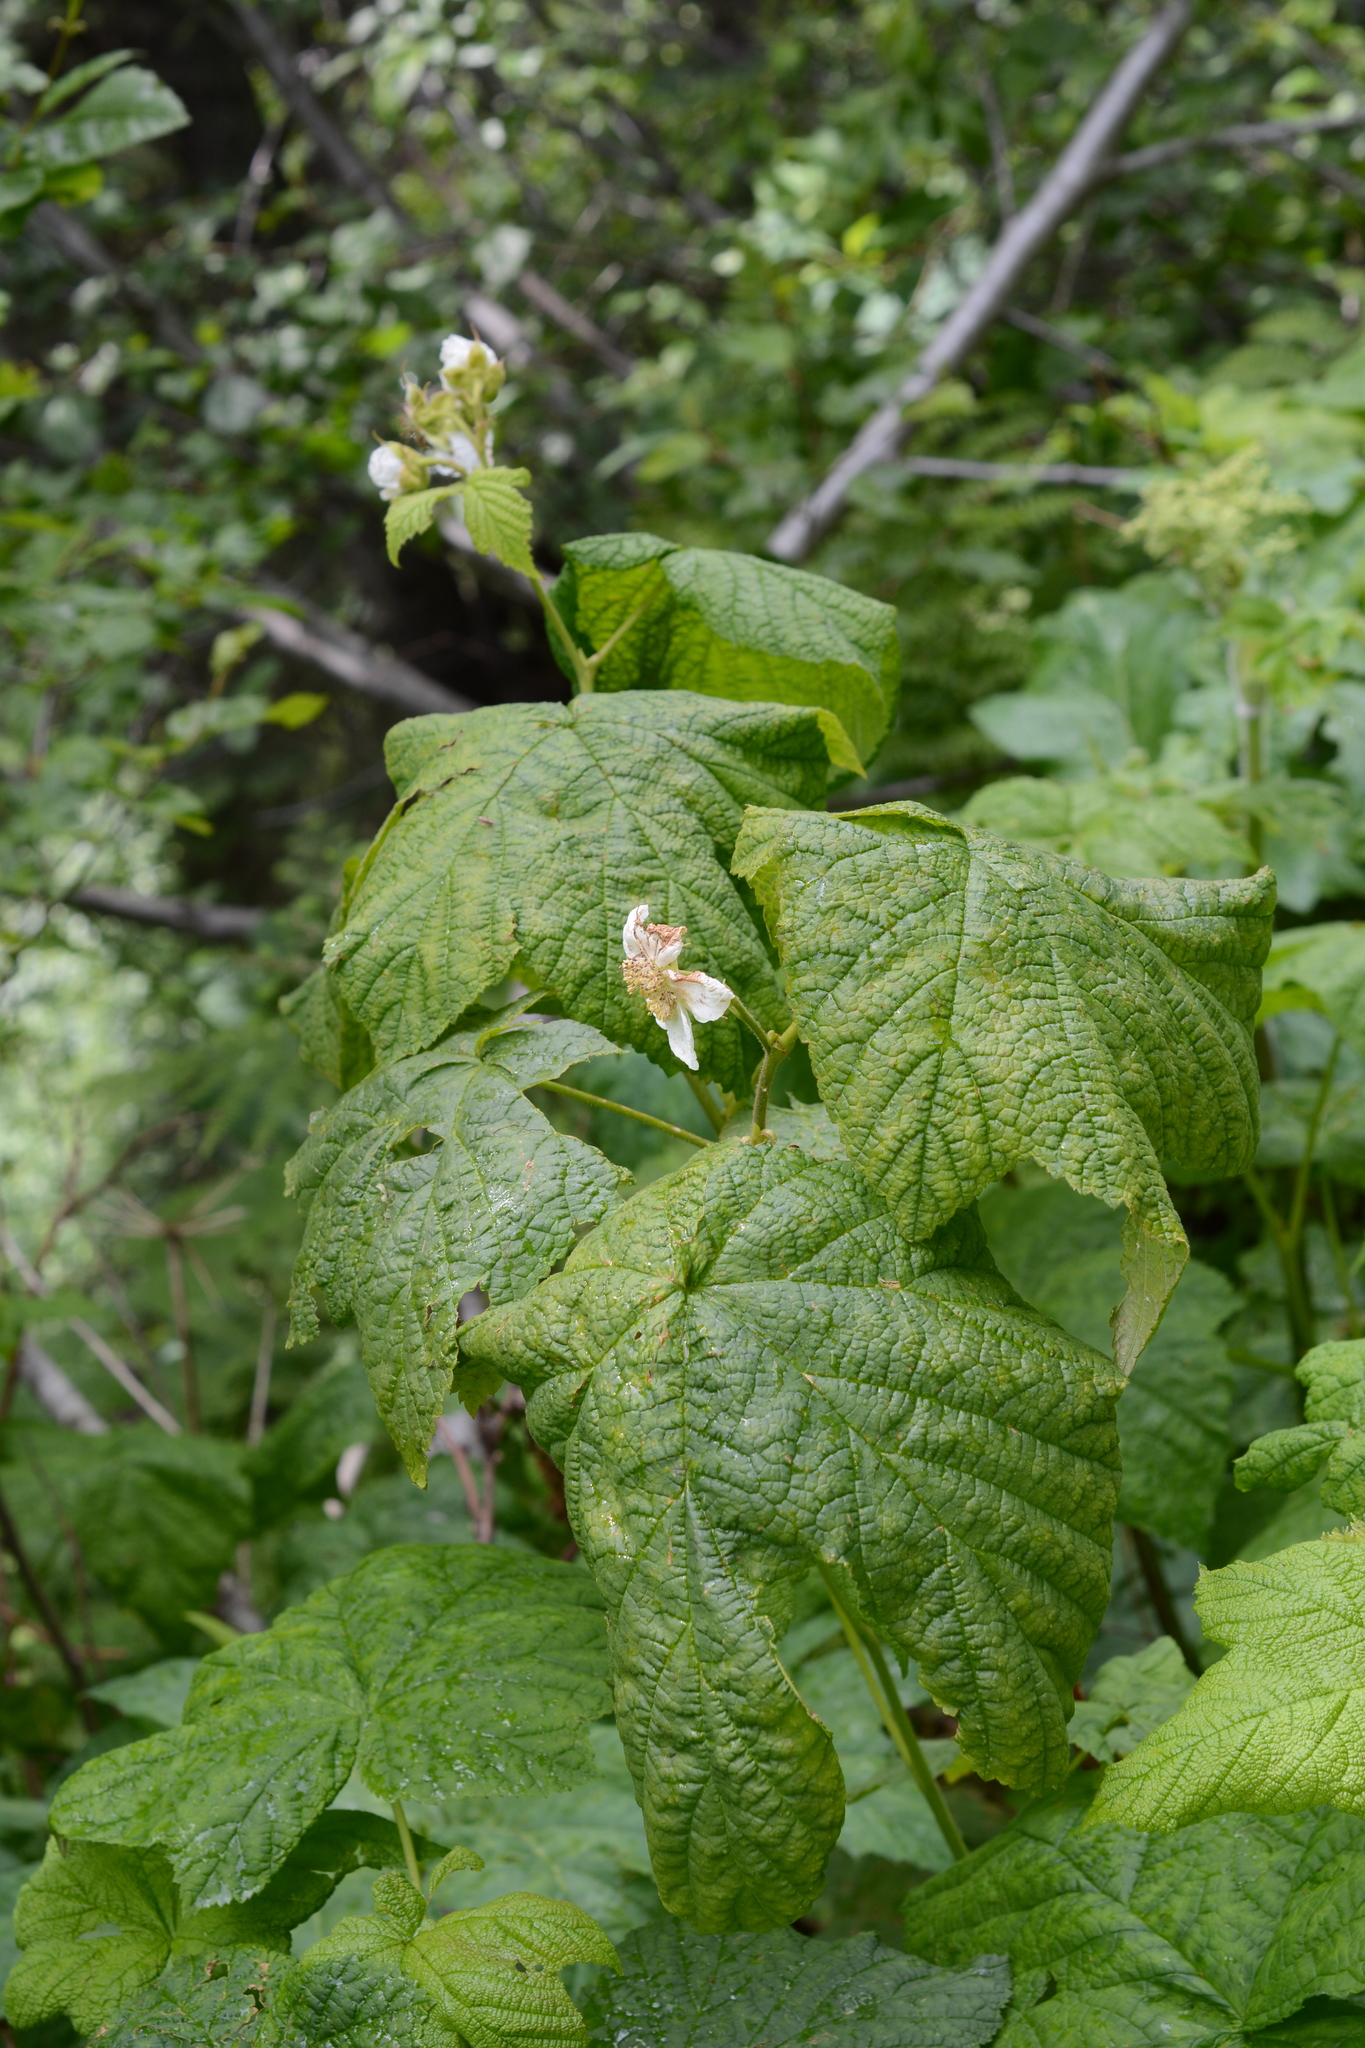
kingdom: Plantae
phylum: Tracheophyta
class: Magnoliopsida
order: Rosales
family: Rosaceae
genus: Rubus
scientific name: Rubus parviflorus
